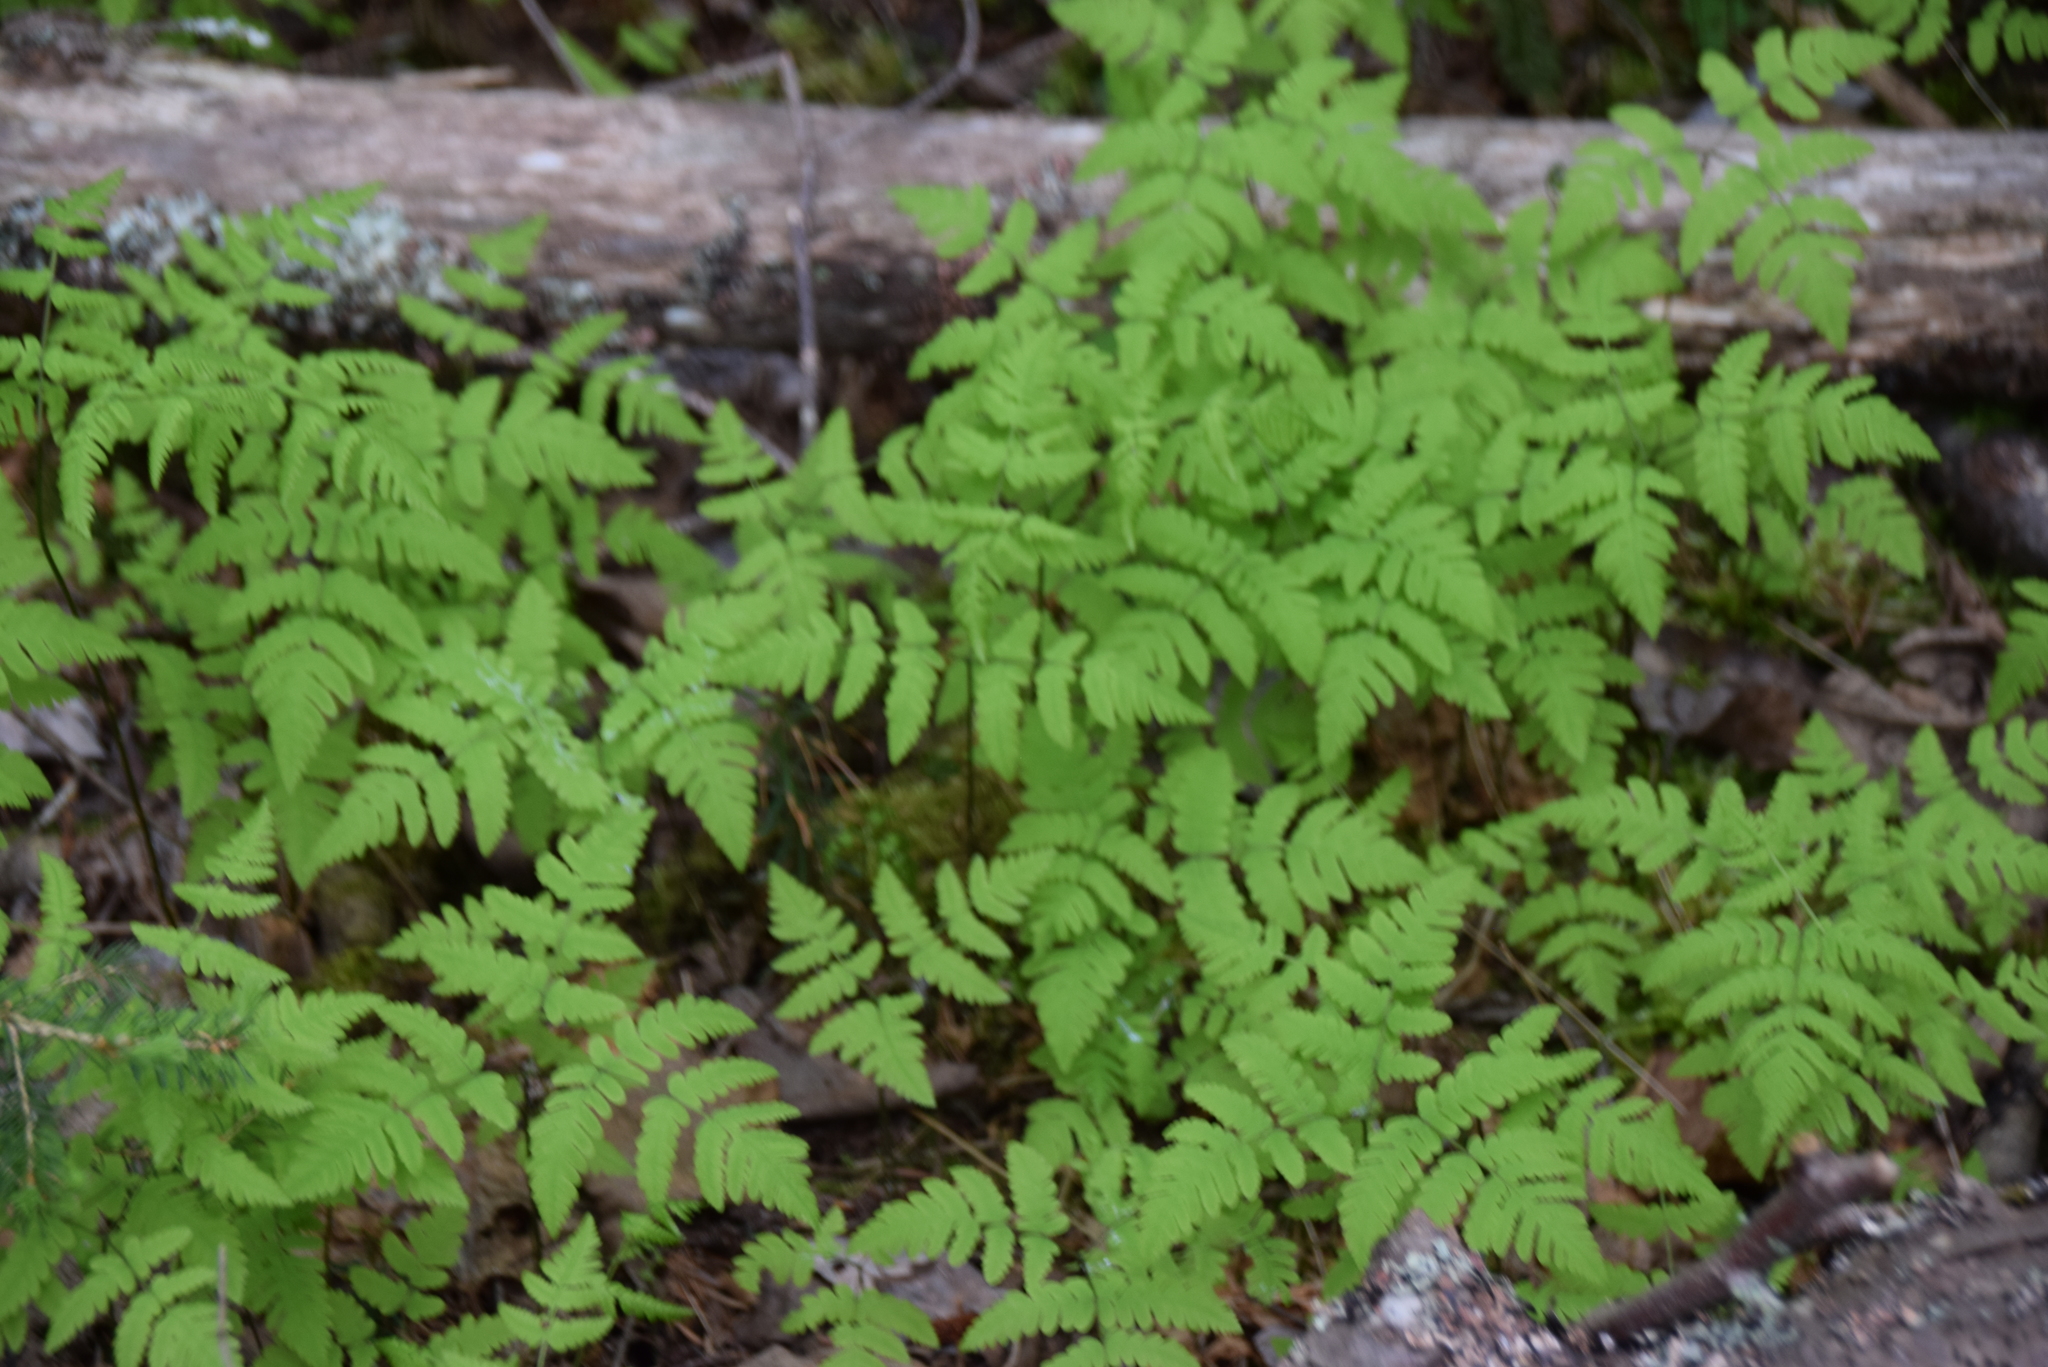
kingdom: Plantae
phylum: Tracheophyta
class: Polypodiopsida
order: Polypodiales
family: Cystopteridaceae
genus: Gymnocarpium
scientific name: Gymnocarpium dryopteris
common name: Oak fern
